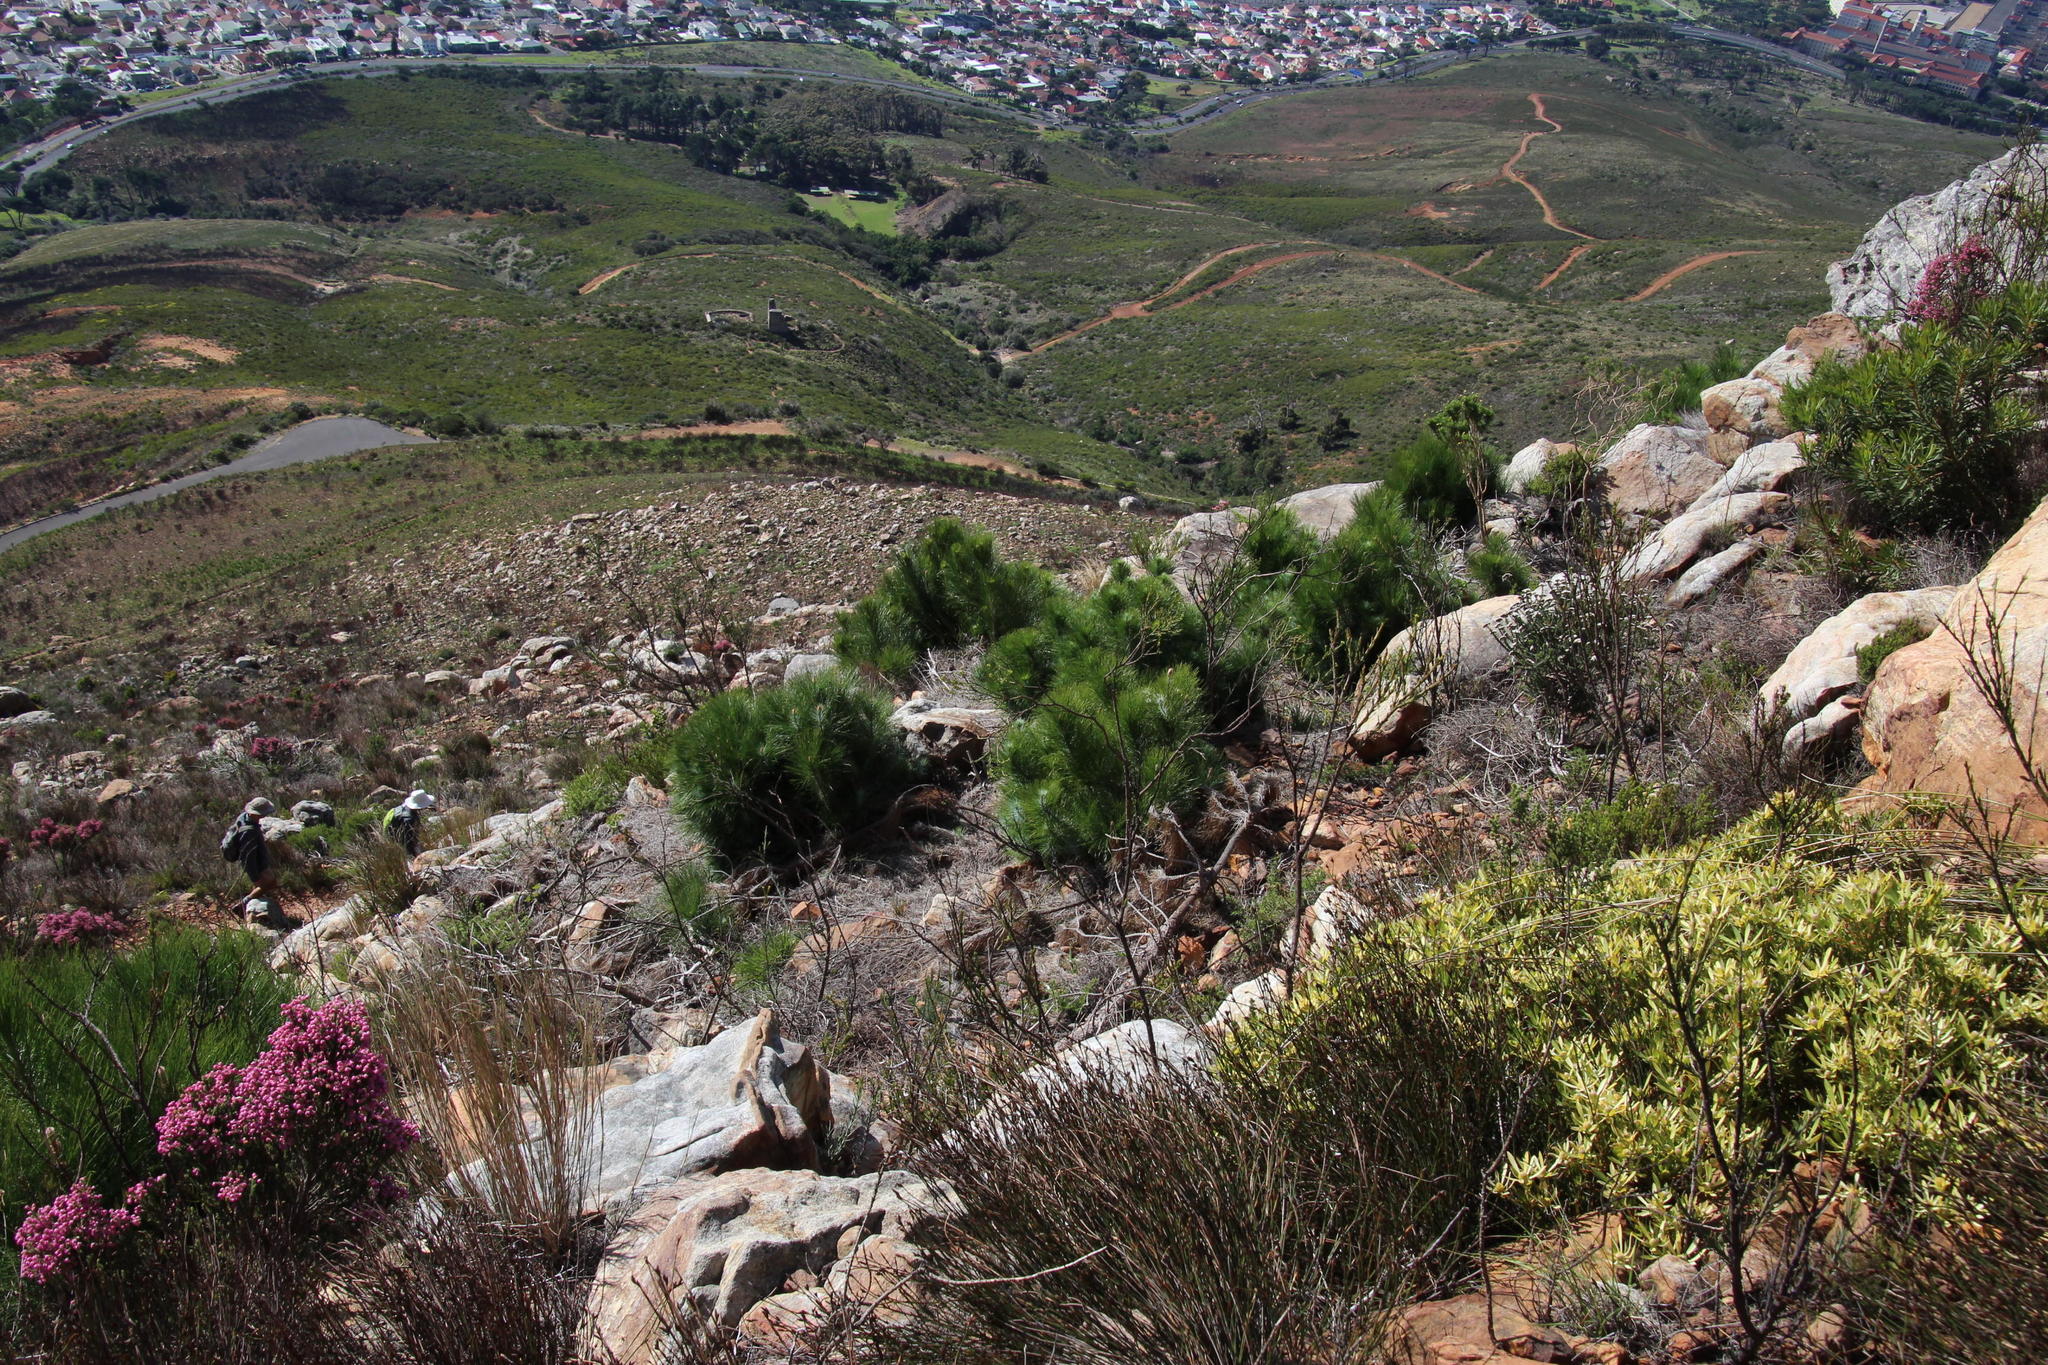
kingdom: Plantae
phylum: Tracheophyta
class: Pinopsida
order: Pinales
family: Pinaceae
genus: Pinus
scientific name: Pinus canariensis
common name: Canary islands pine
